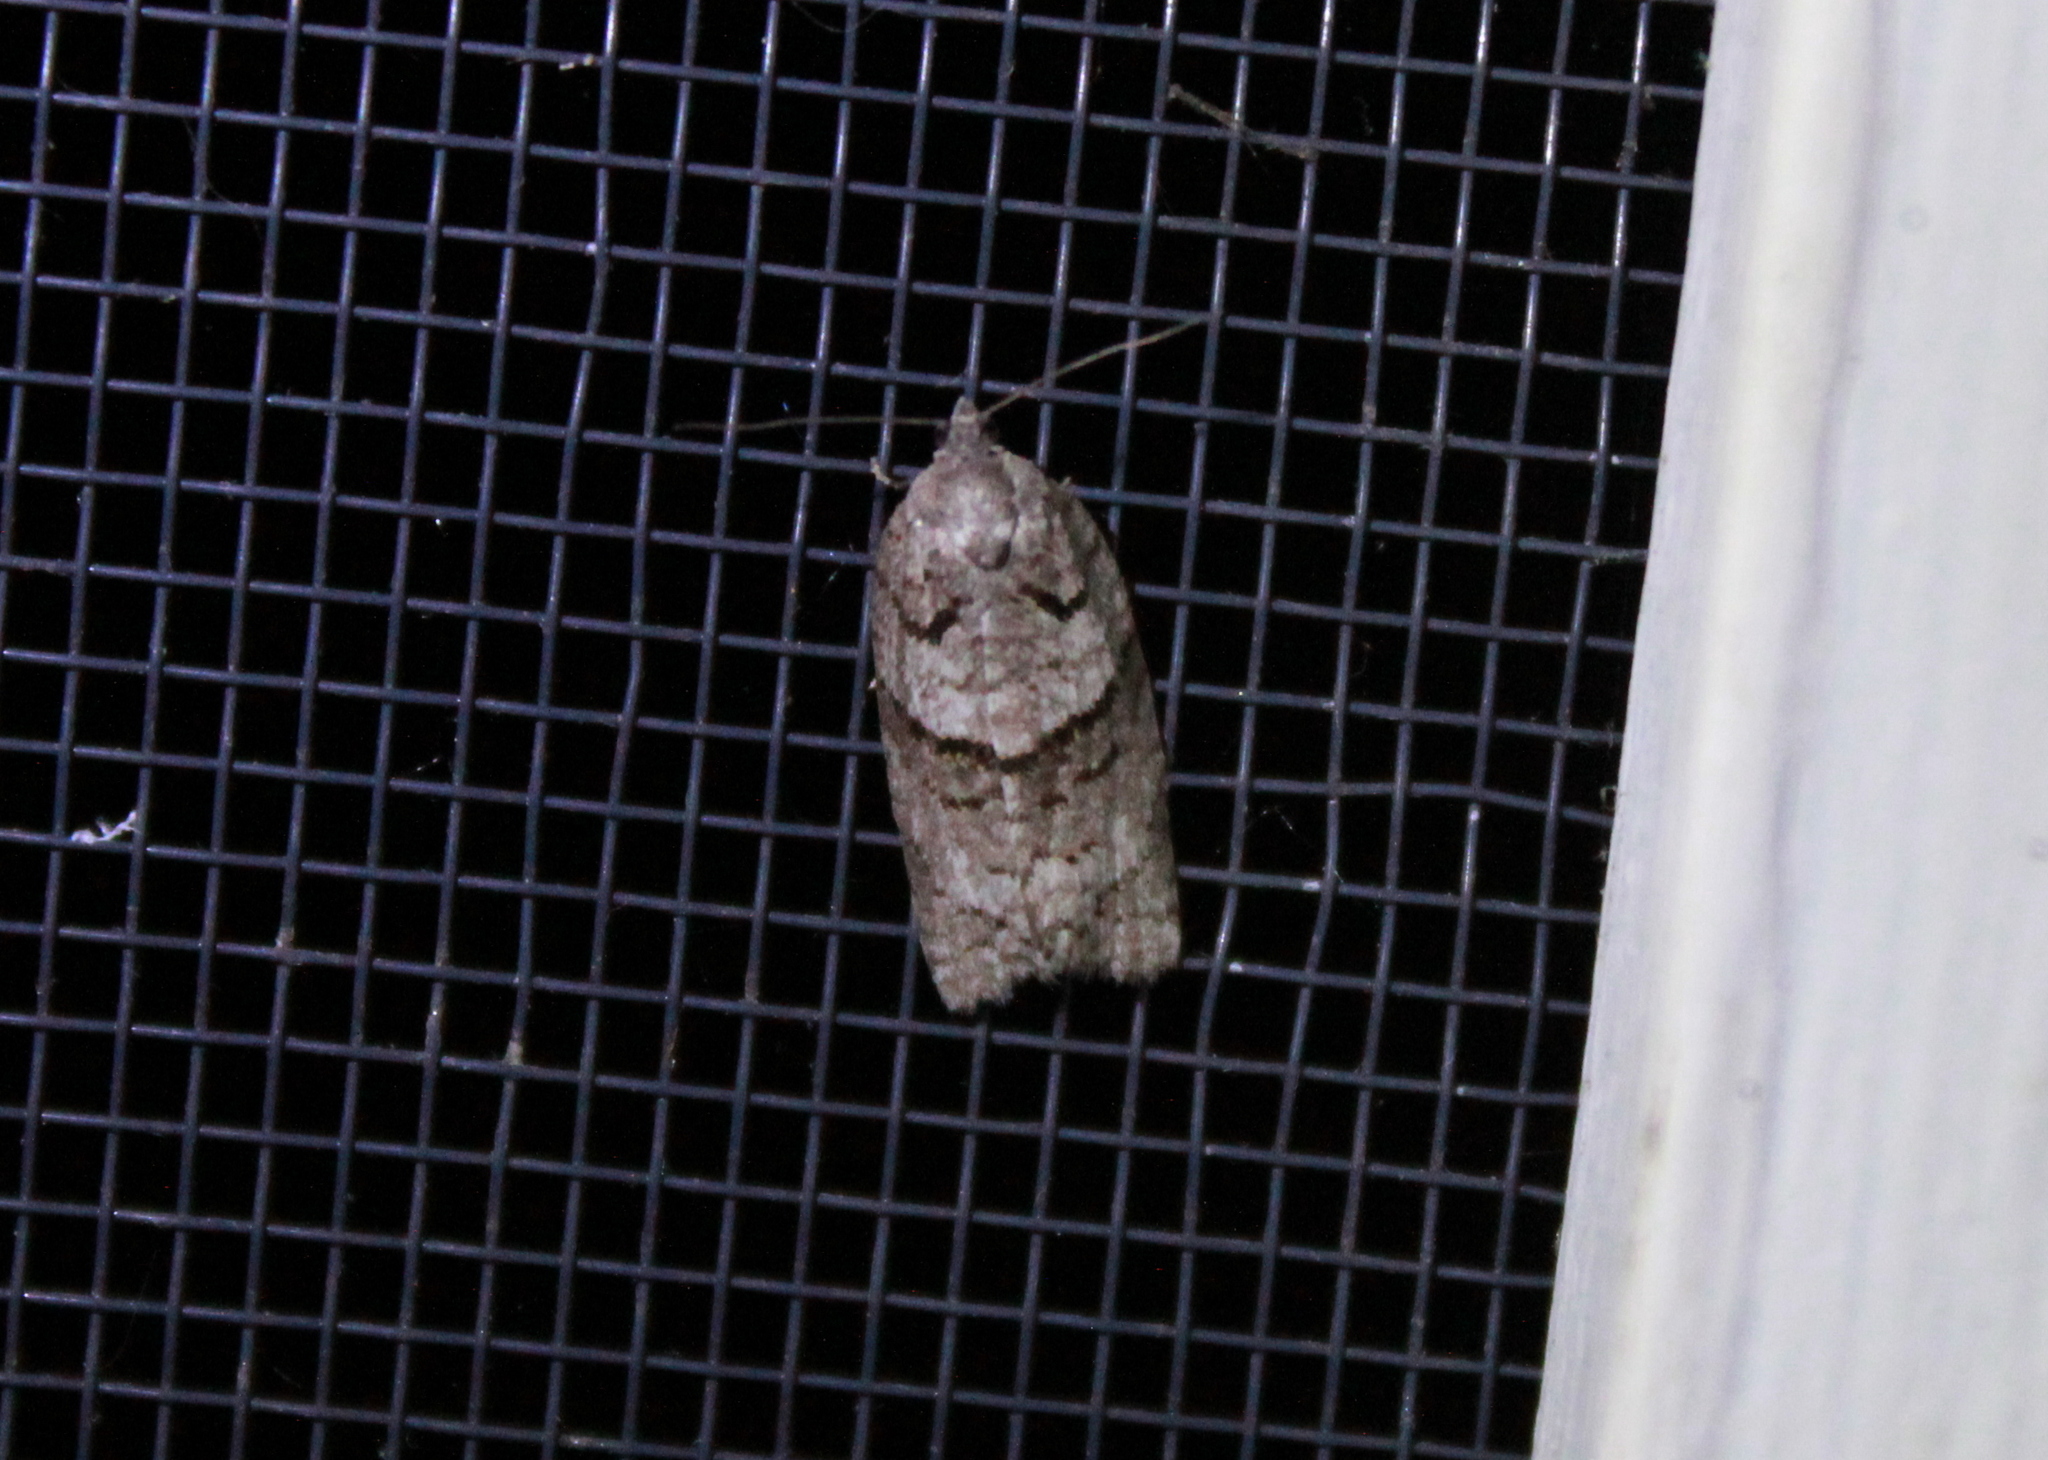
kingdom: Animalia
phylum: Arthropoda
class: Insecta
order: Lepidoptera
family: Tortricidae
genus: Syndemis
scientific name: Syndemis afflictana
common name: Gray leafroller moth
